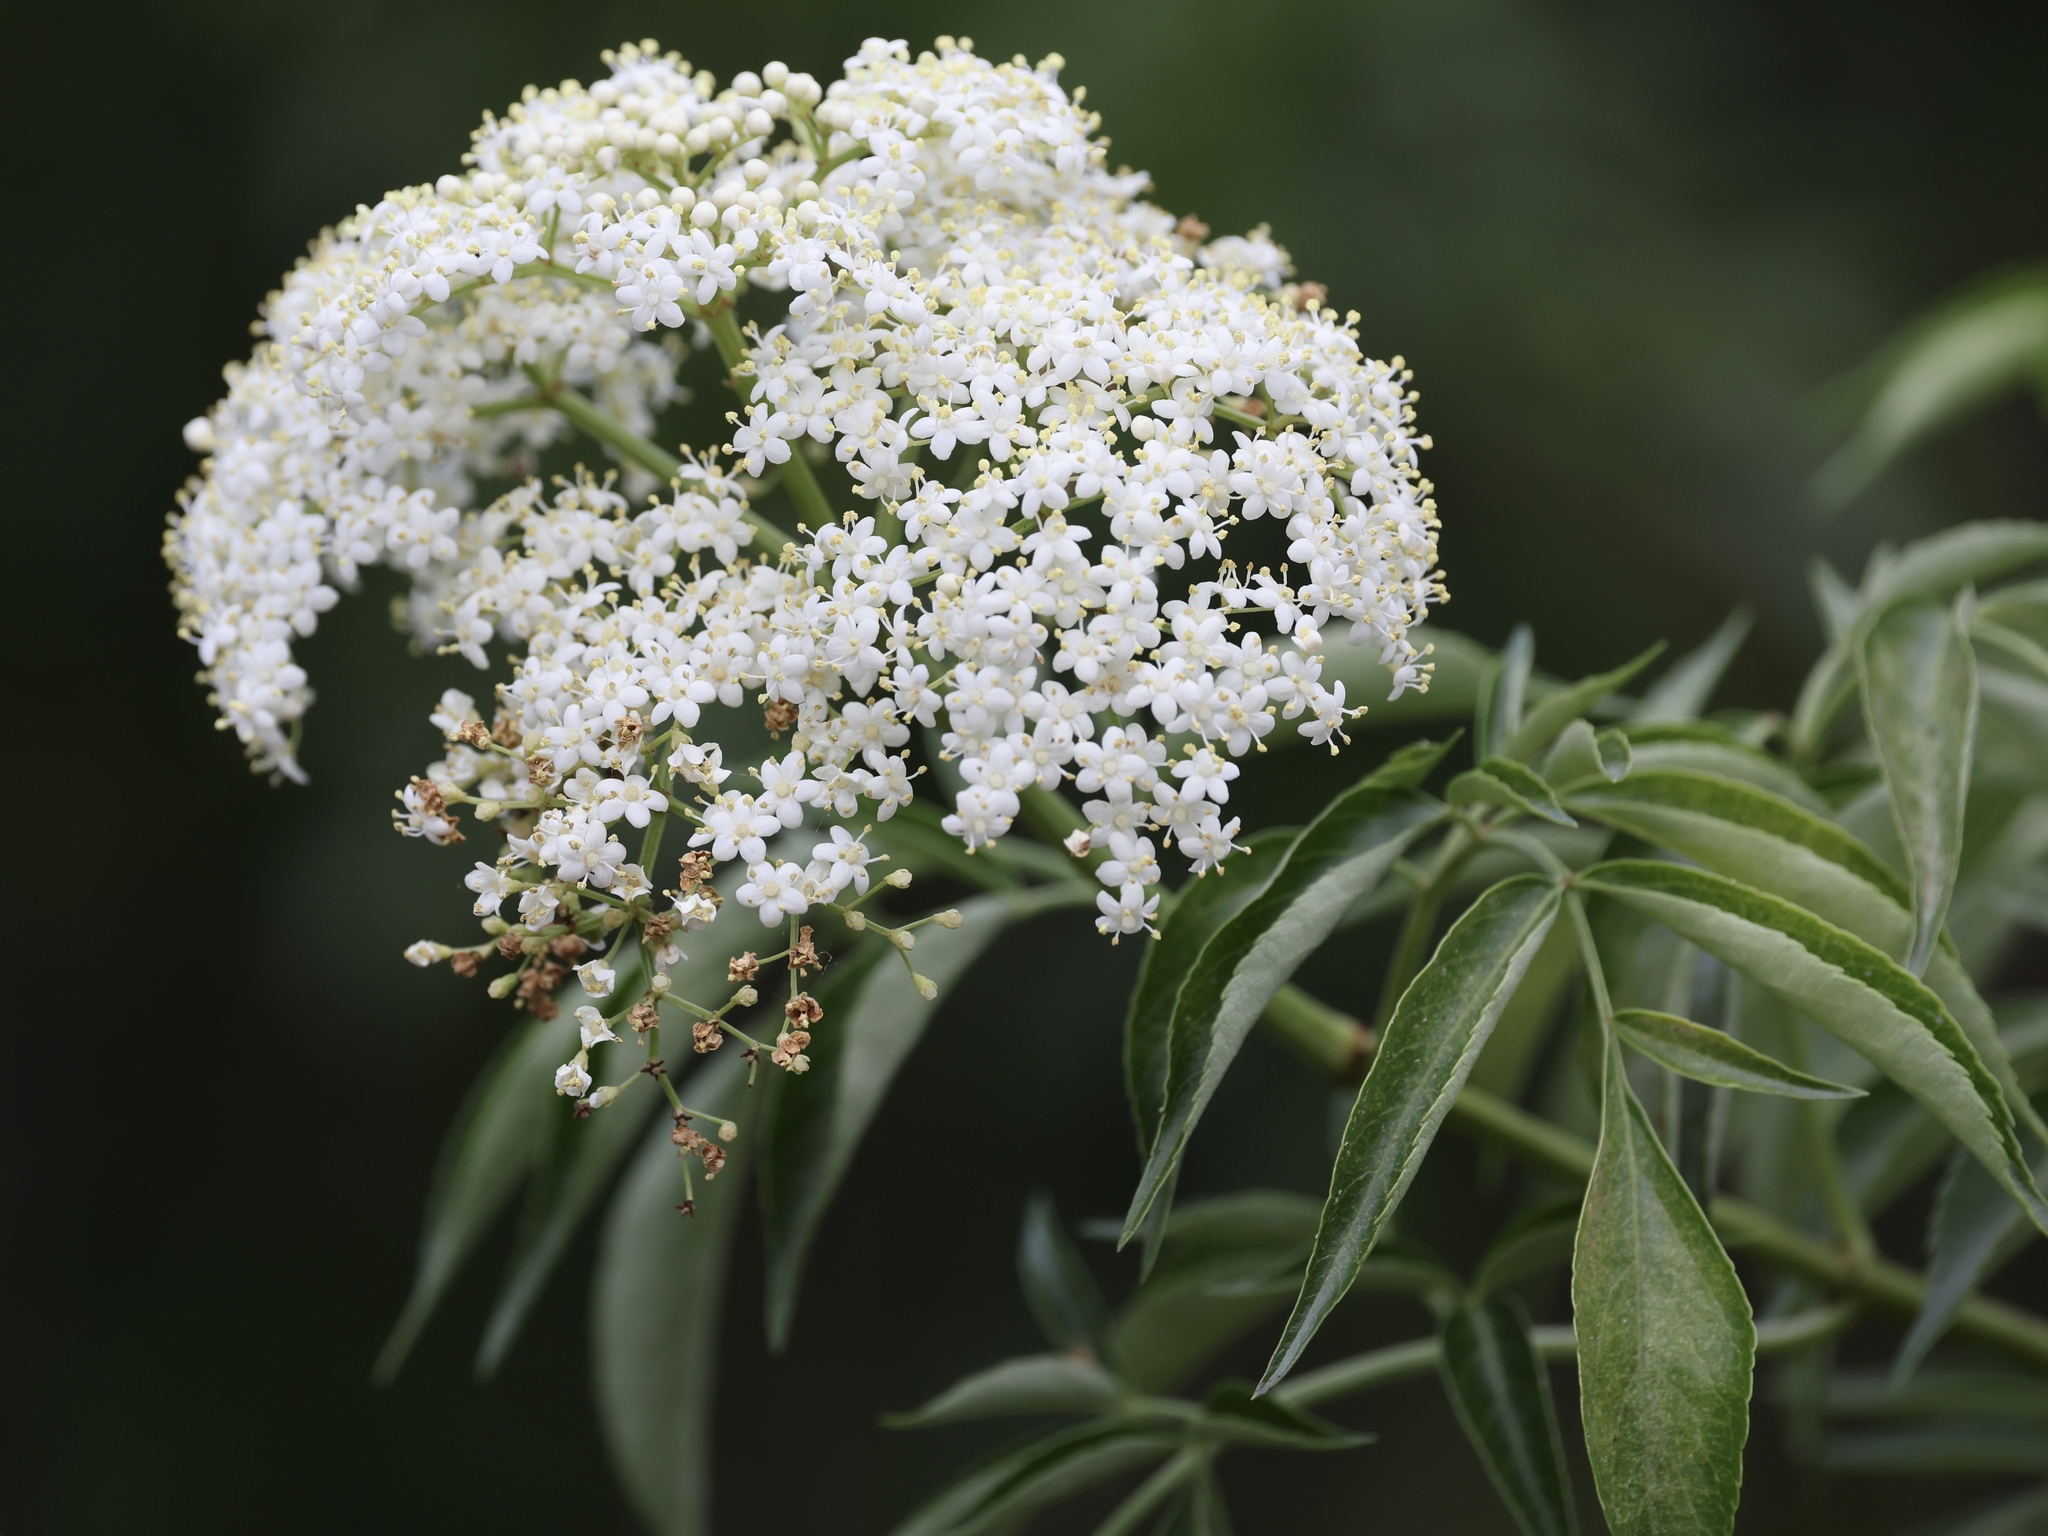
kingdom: Plantae
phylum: Tracheophyta
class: Magnoliopsida
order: Dipsacales
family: Viburnaceae
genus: Sambucus
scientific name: Sambucus canadensis
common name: American elder
